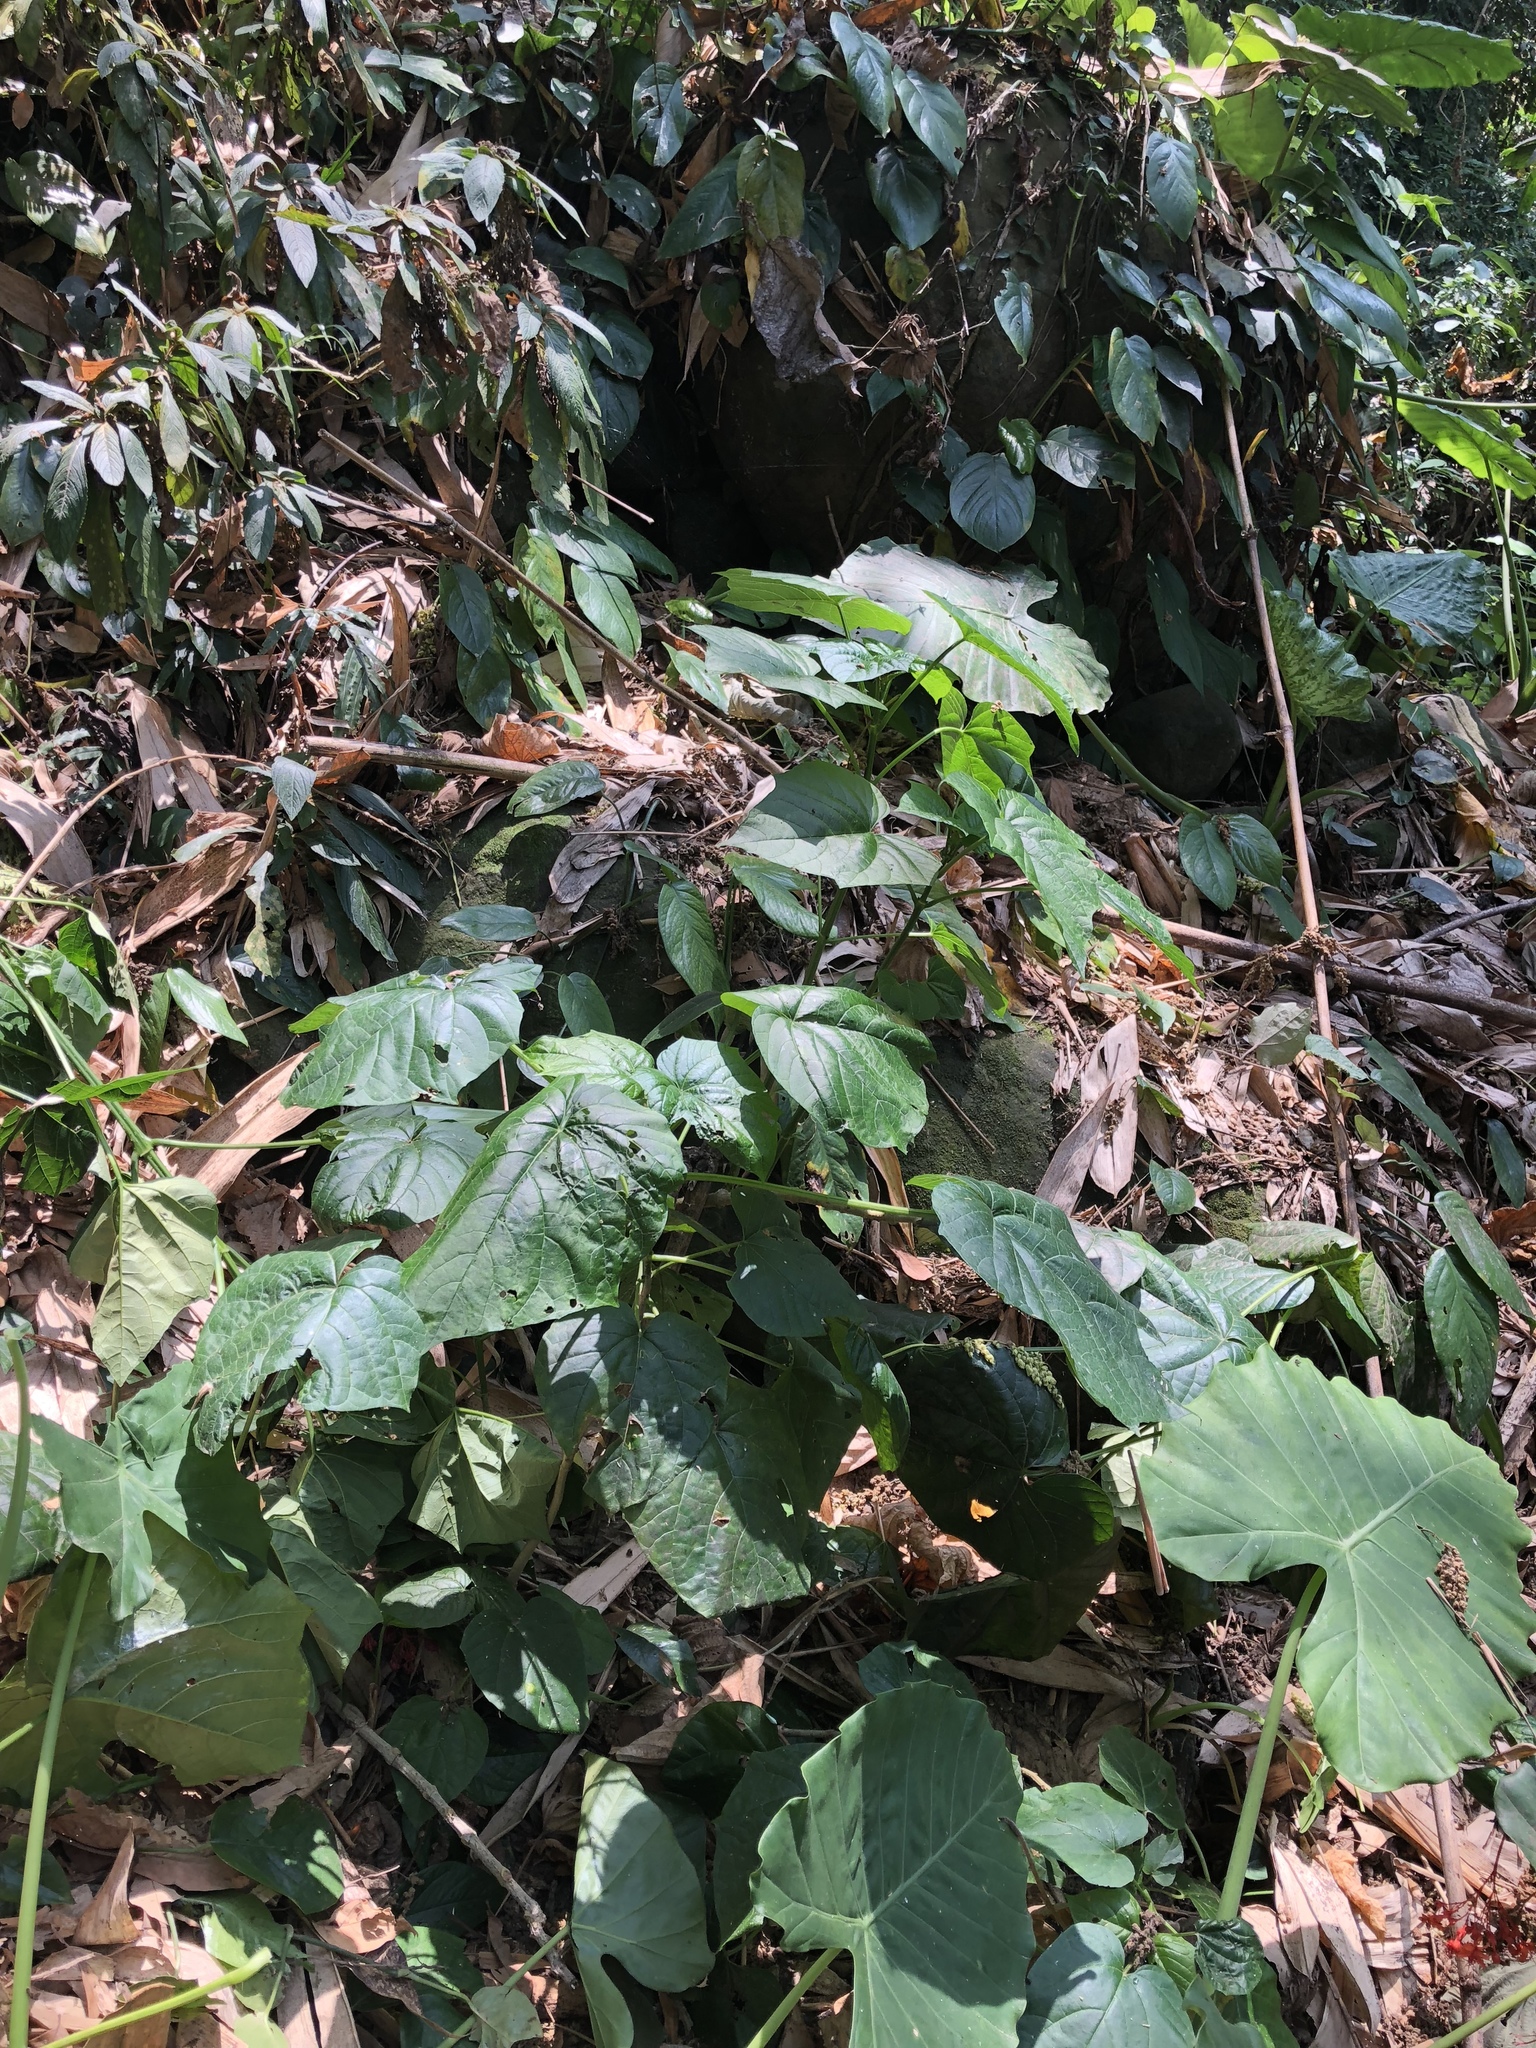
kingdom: Plantae
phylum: Tracheophyta
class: Magnoliopsida
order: Lamiales
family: Lamiaceae
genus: Clerodendrum
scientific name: Clerodendrum japonicum
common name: Japanese glorybower
